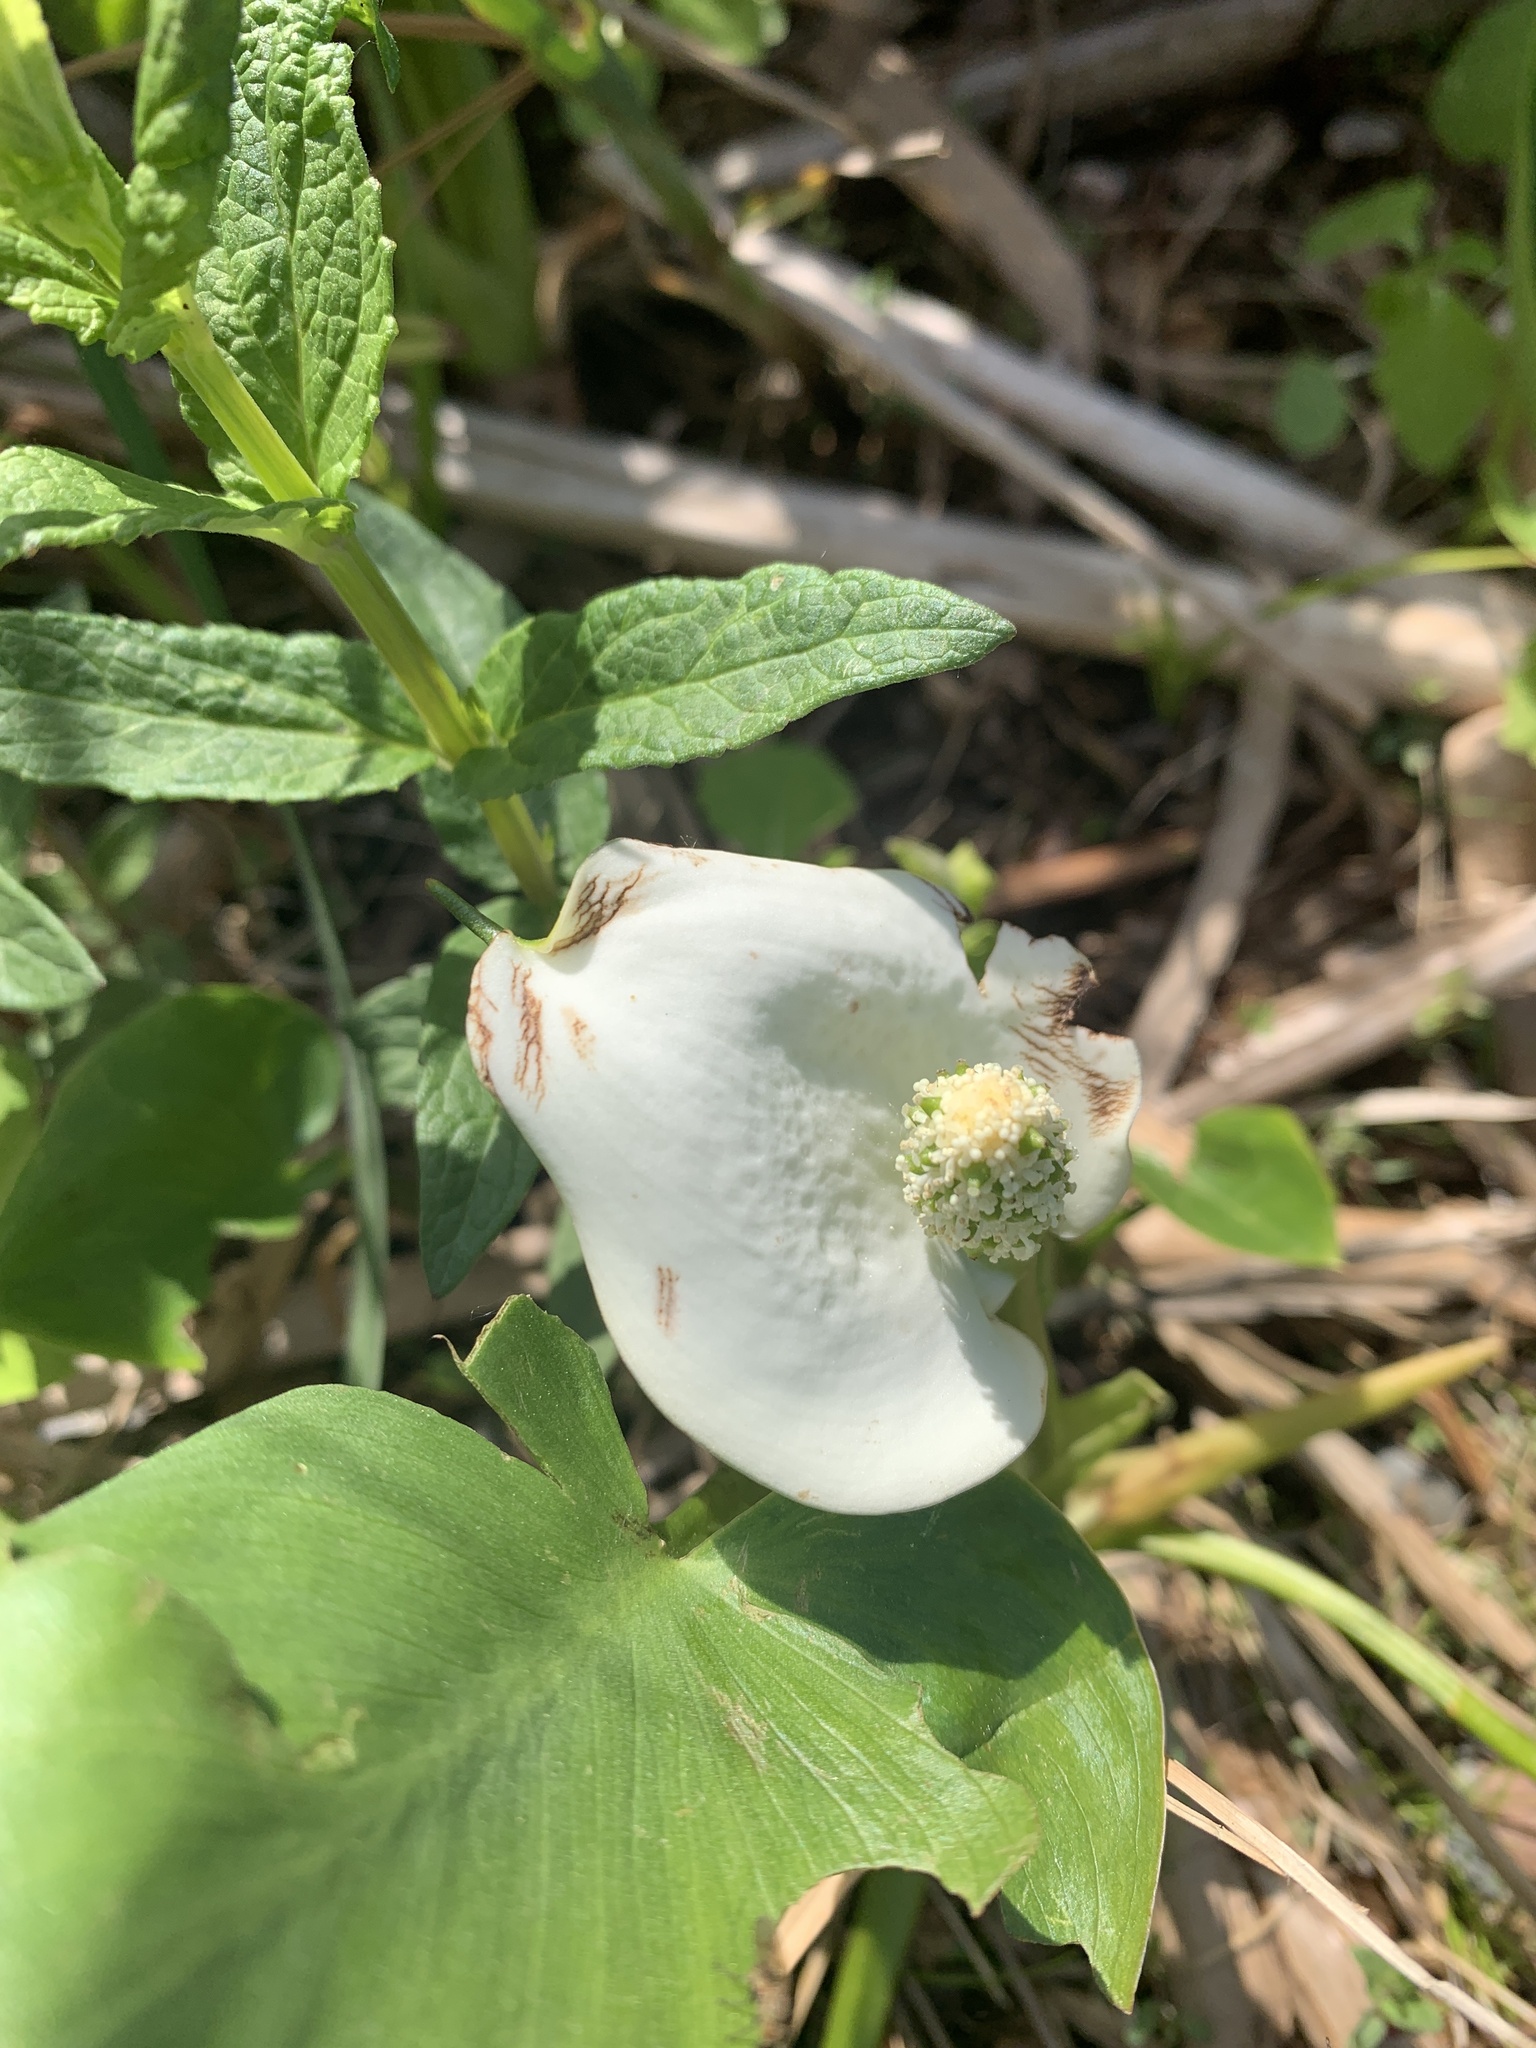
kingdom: Plantae
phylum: Tracheophyta
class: Liliopsida
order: Alismatales
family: Araceae
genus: Calla
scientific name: Calla palustris
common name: Bog arum
